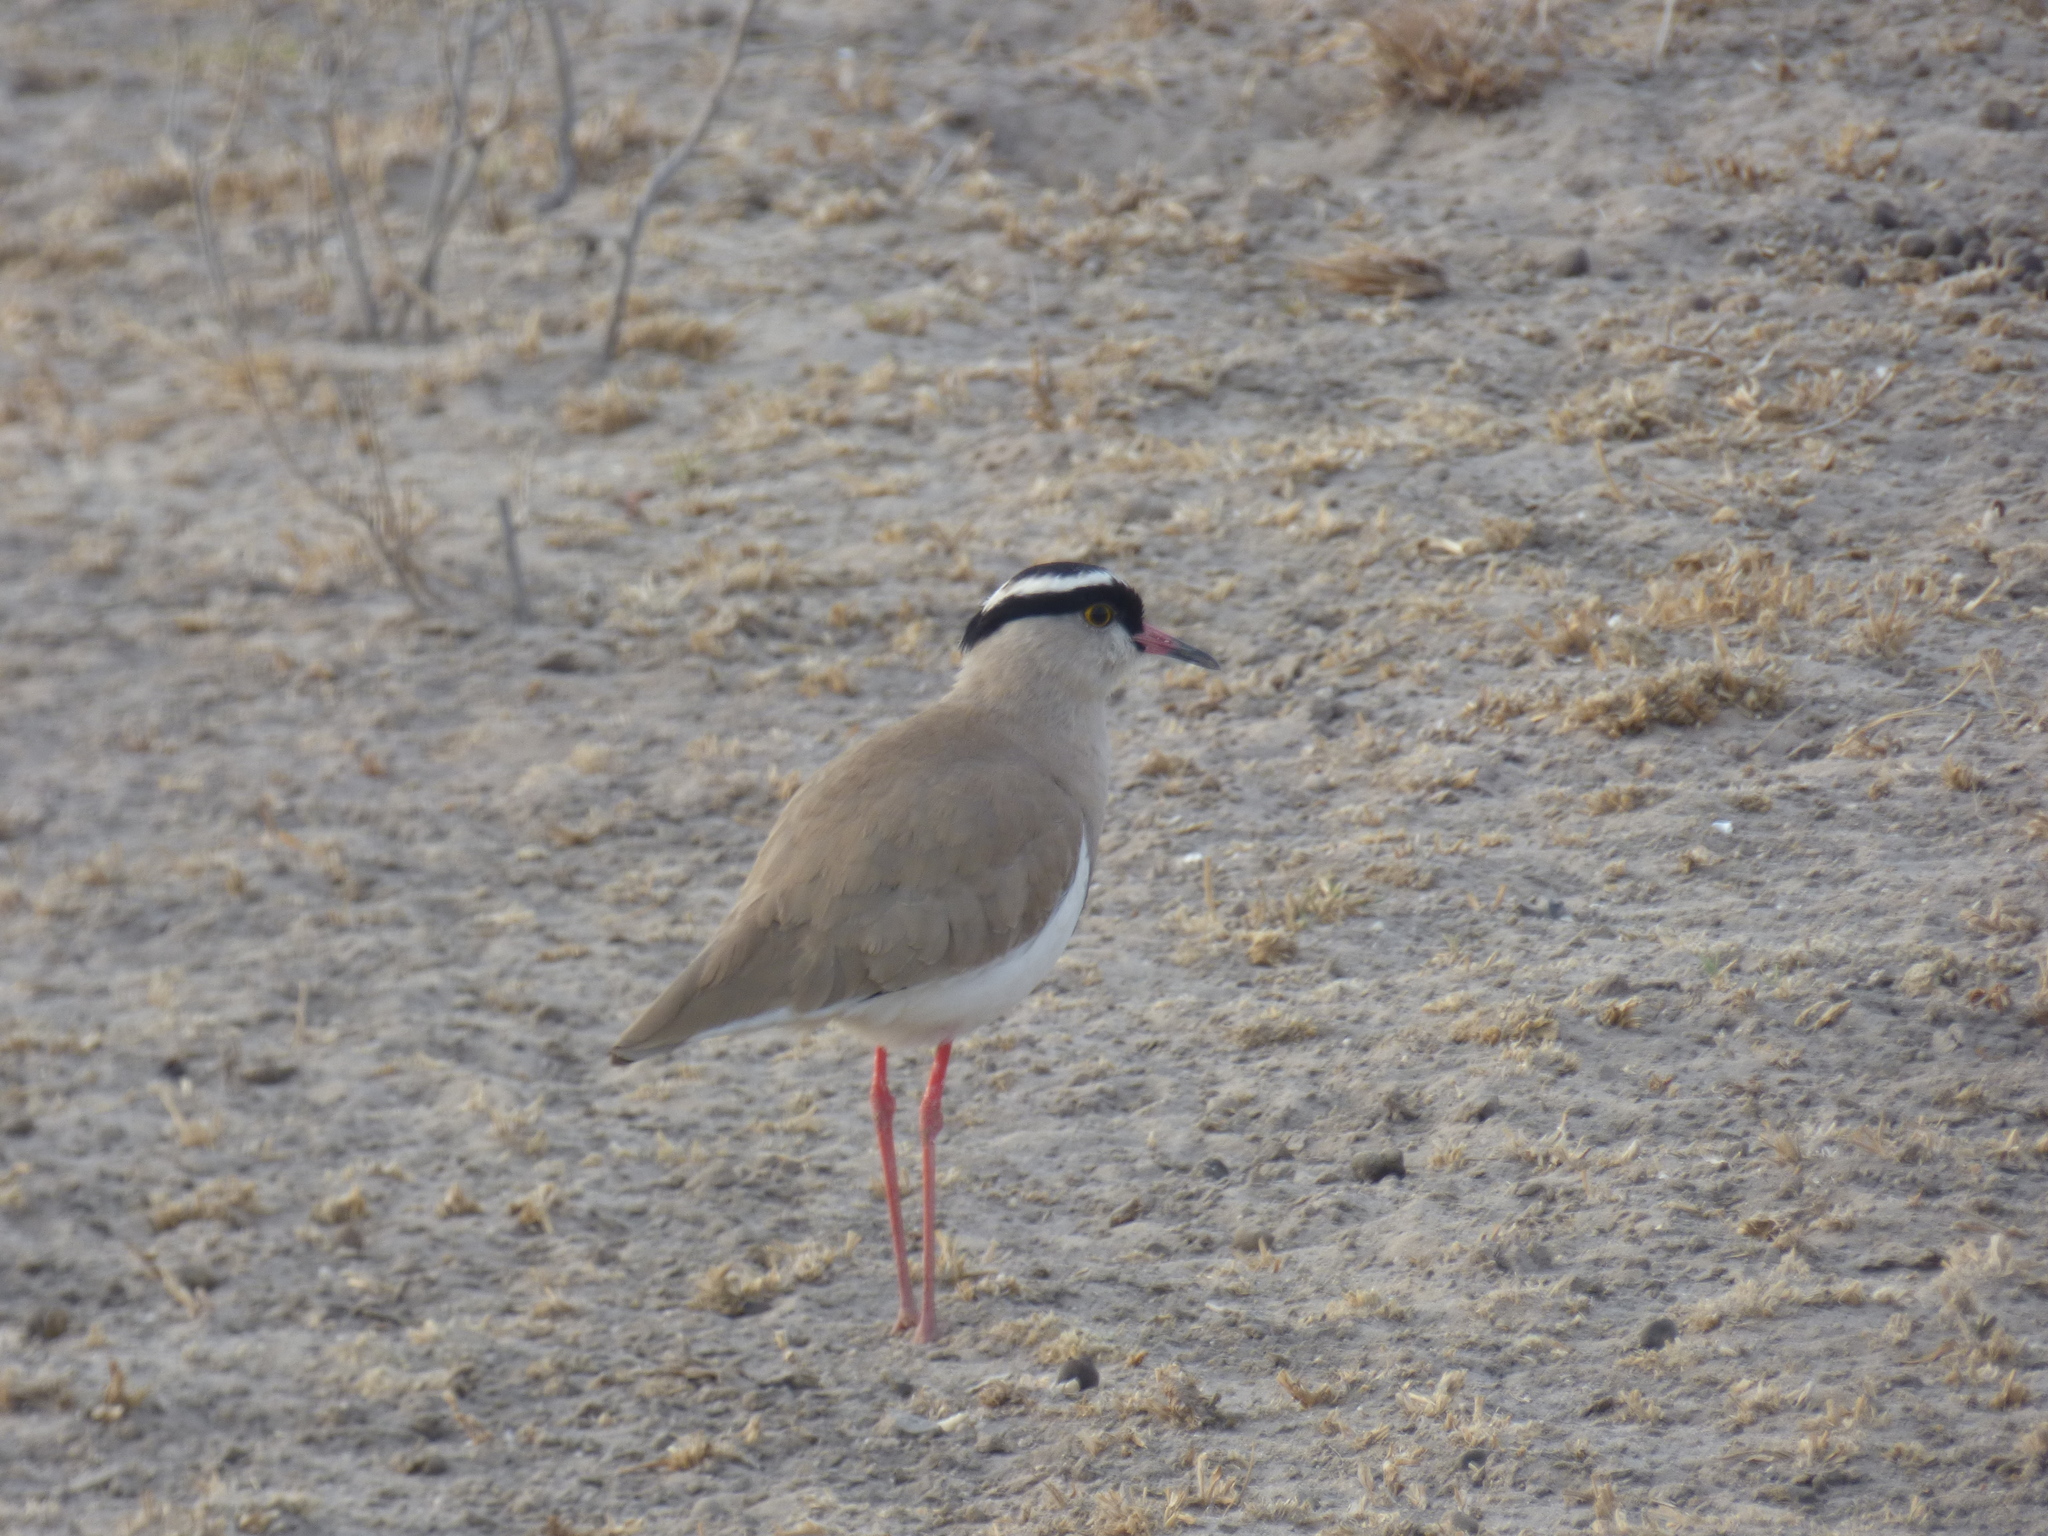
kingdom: Animalia
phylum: Chordata
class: Aves
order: Charadriiformes
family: Charadriidae
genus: Vanellus
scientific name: Vanellus coronatus
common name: Crowned lapwing
